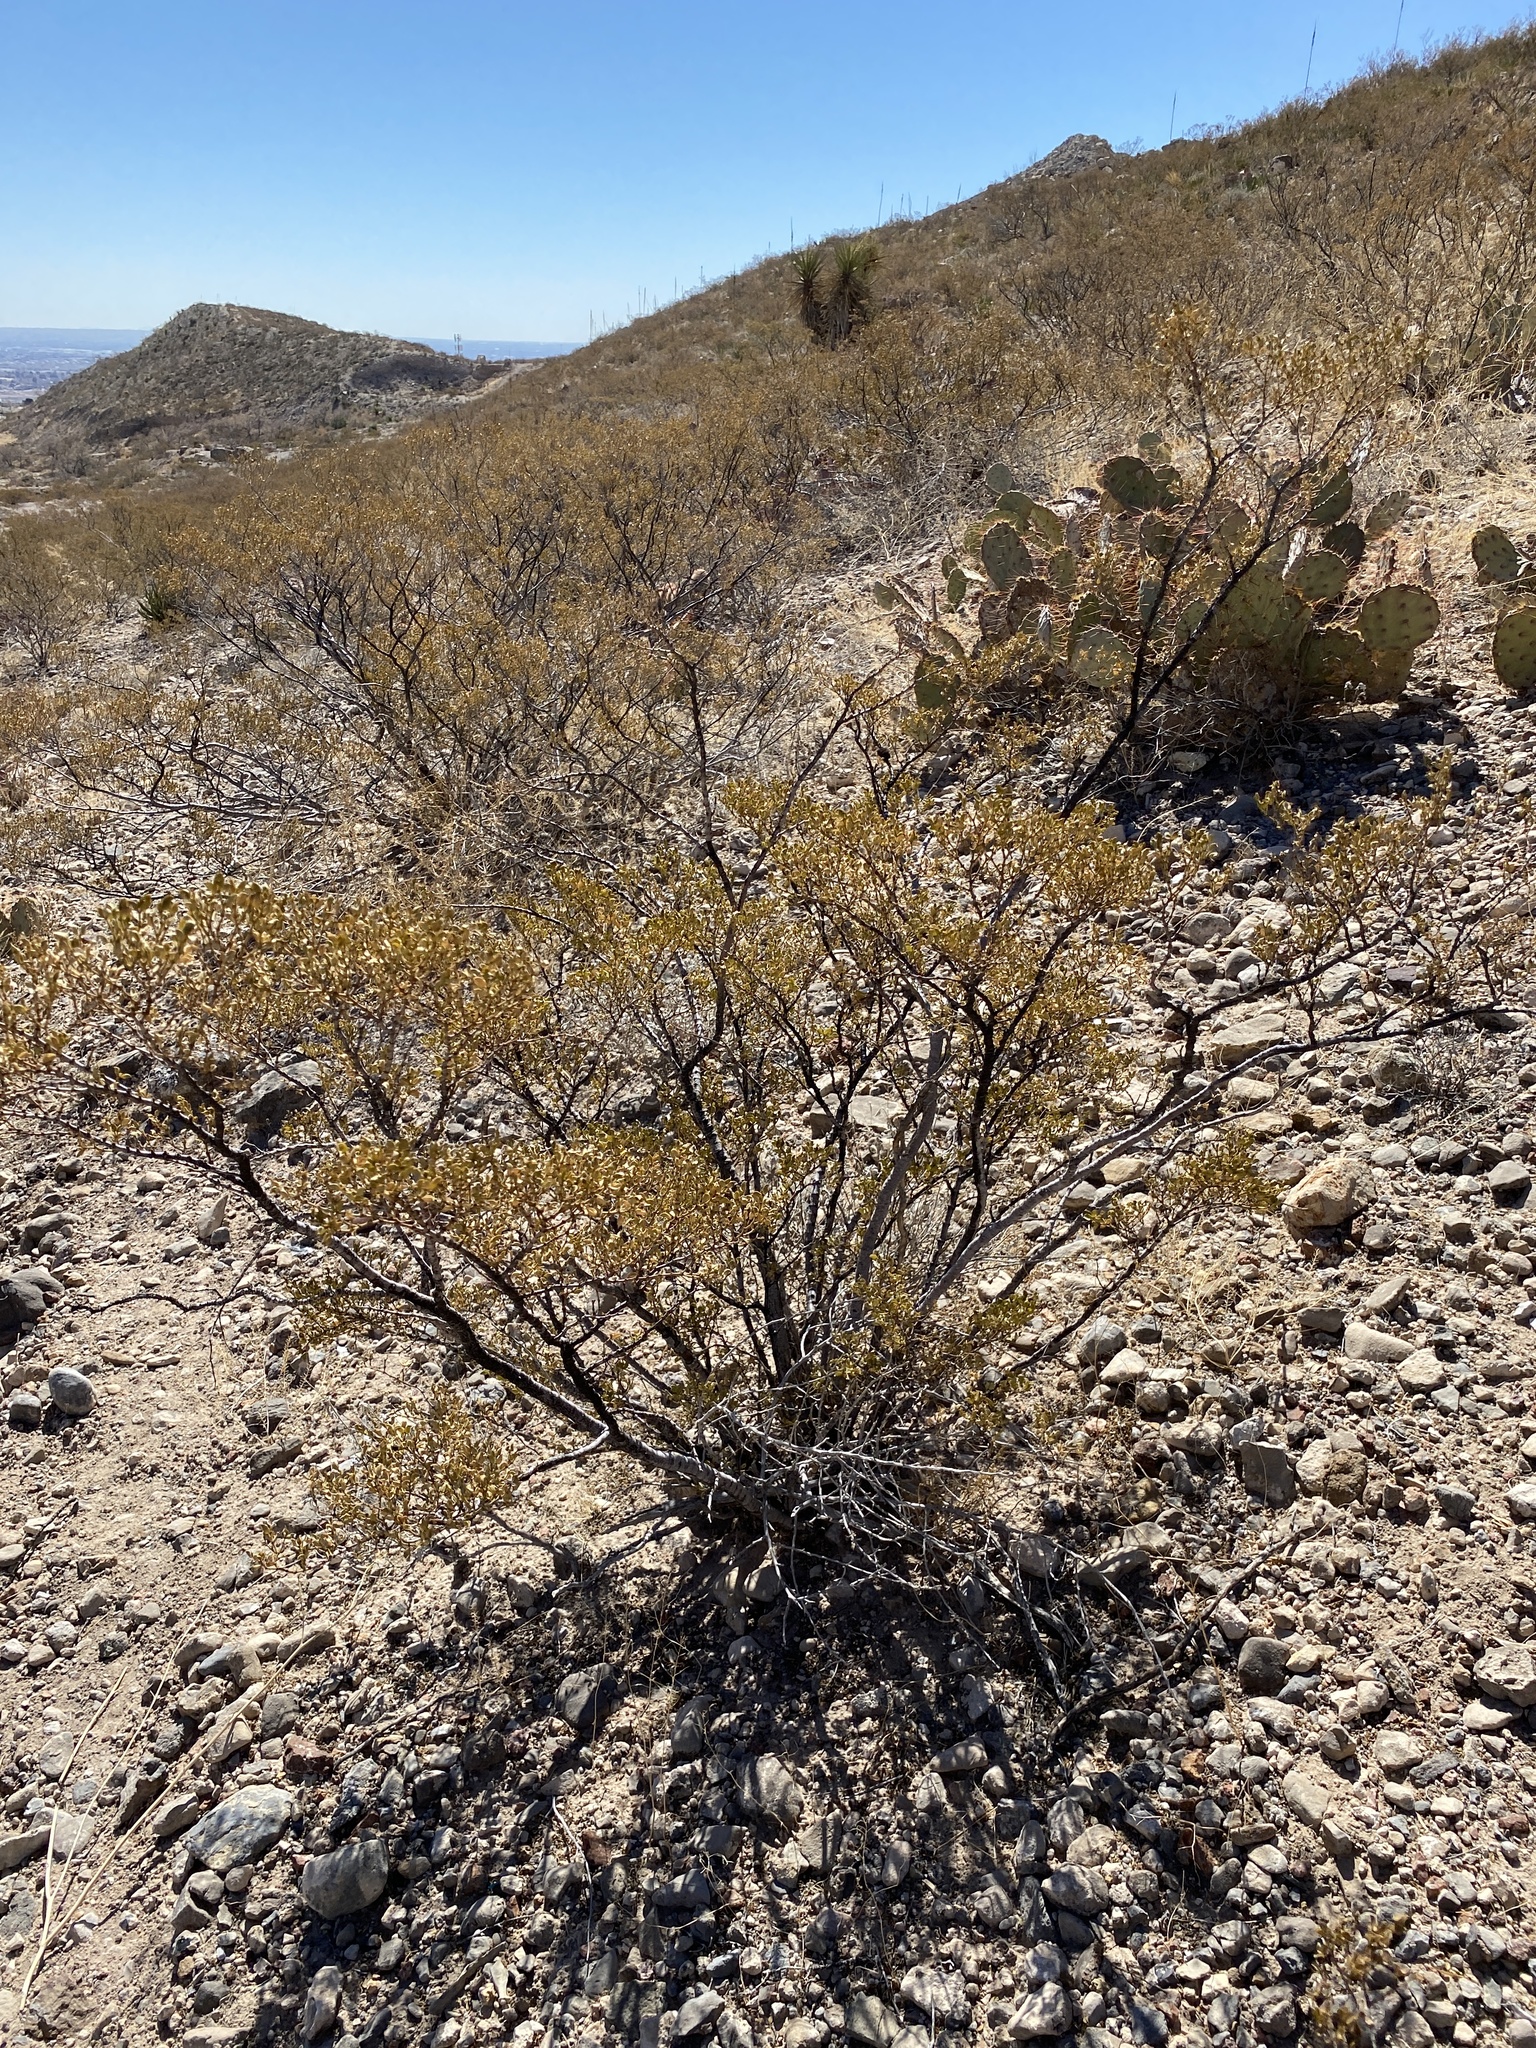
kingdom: Plantae
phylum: Tracheophyta
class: Magnoliopsida
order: Zygophyllales
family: Zygophyllaceae
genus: Larrea
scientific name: Larrea tridentata
